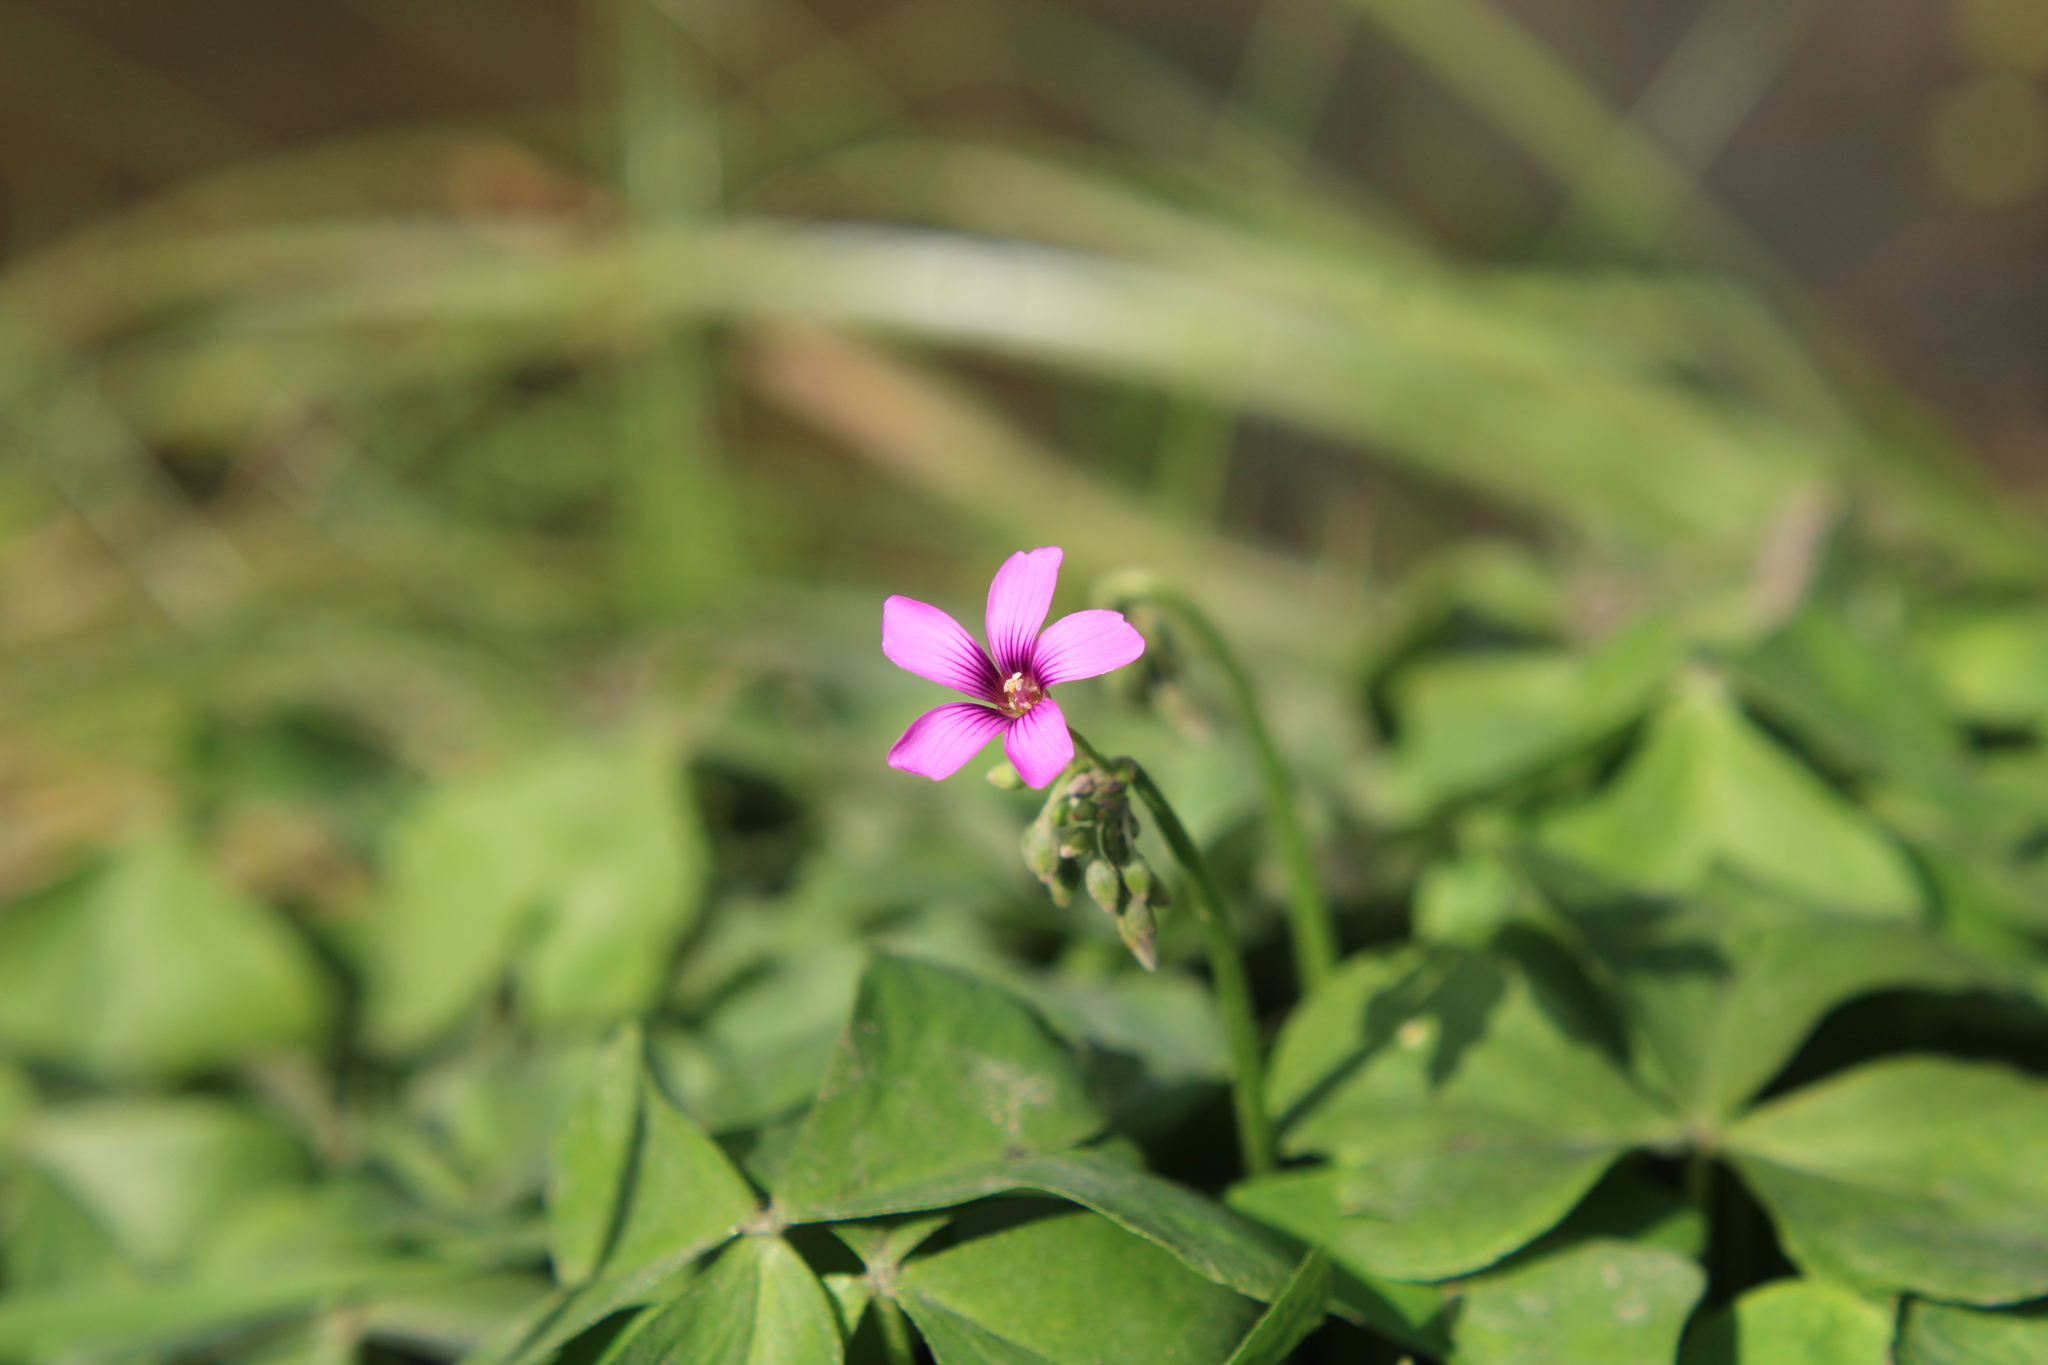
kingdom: Plantae
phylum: Tracheophyta
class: Magnoliopsida
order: Oxalidales
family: Oxalidaceae
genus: Oxalis
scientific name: Oxalis articulata
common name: Pink-sorrel
